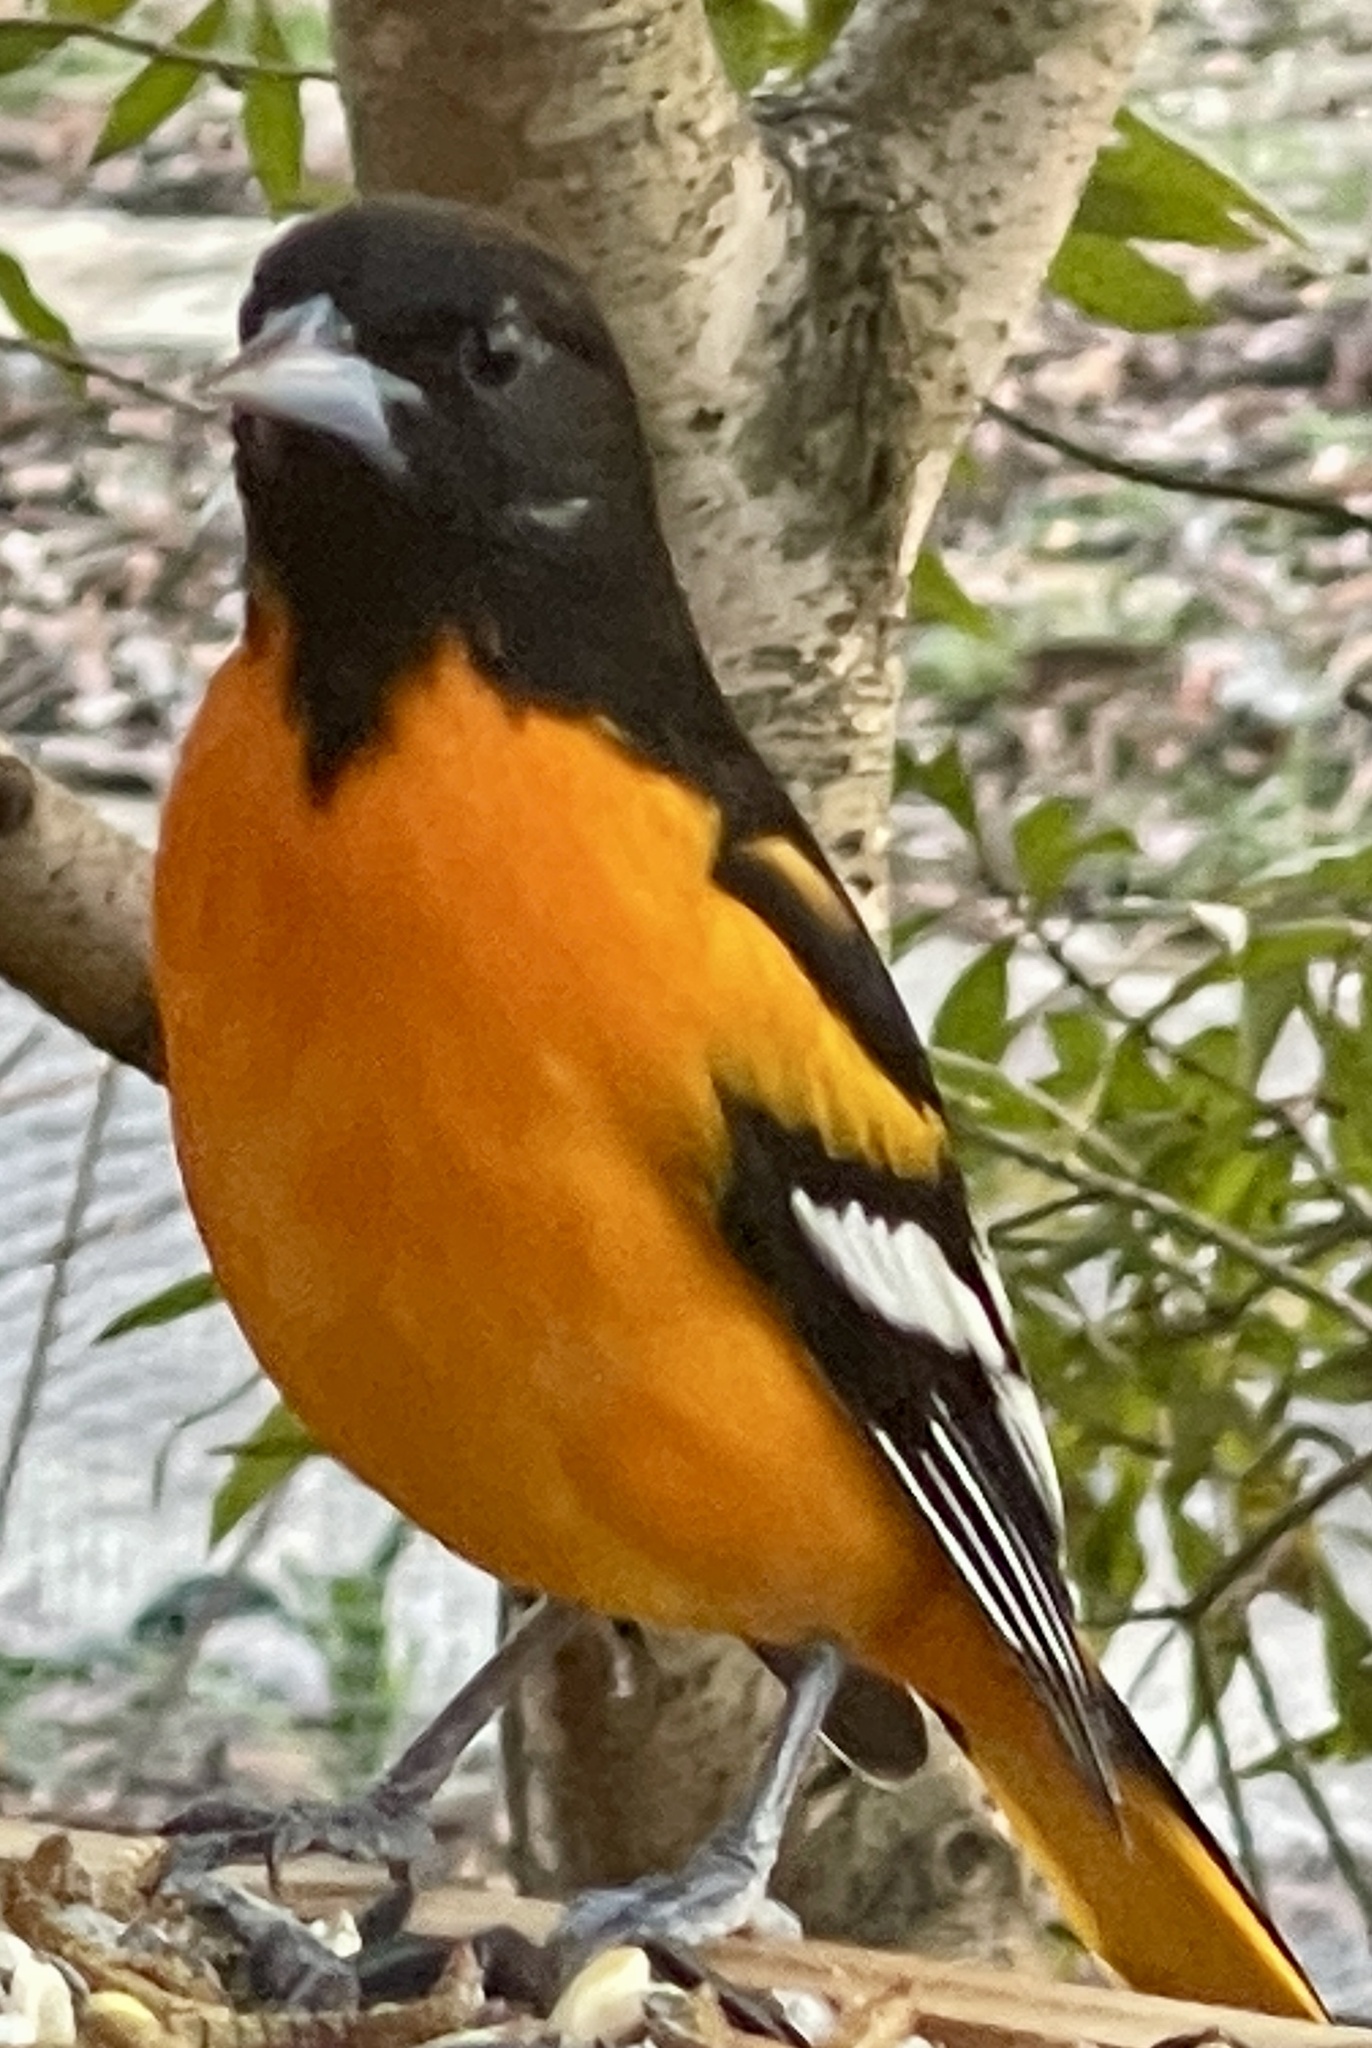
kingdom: Animalia
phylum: Chordata
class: Aves
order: Passeriformes
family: Icteridae
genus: Icterus
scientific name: Icterus galbula
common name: Baltimore oriole
